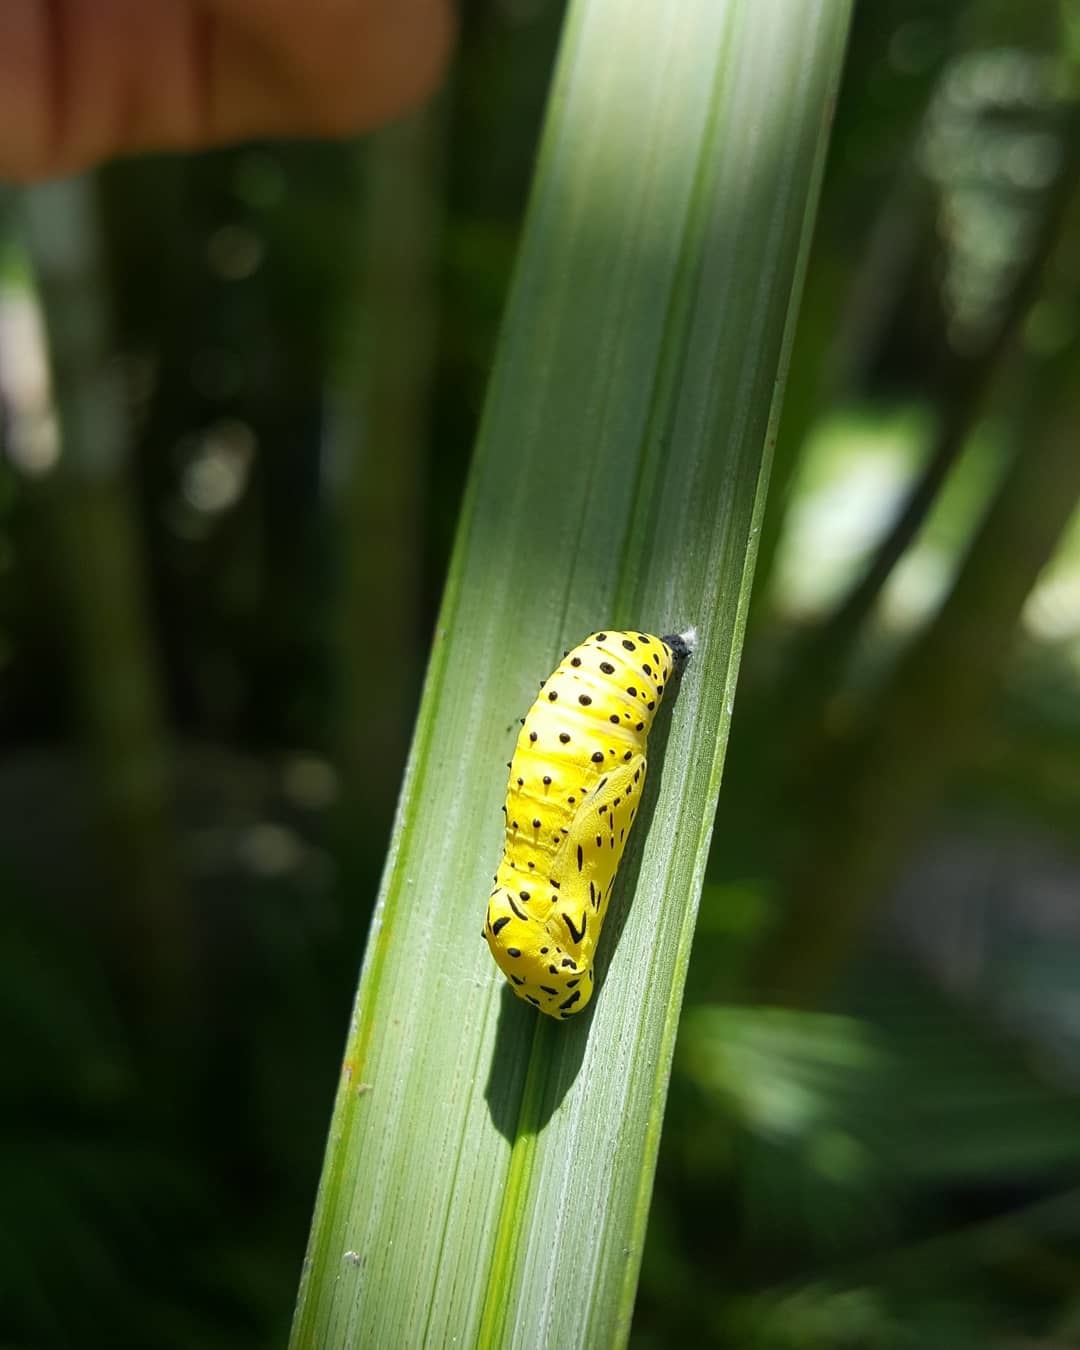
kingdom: Animalia
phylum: Arthropoda
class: Insecta
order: Lepidoptera
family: Nymphalidae
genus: Chlosyne
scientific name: Chlosyne janais
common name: Crimson patch
